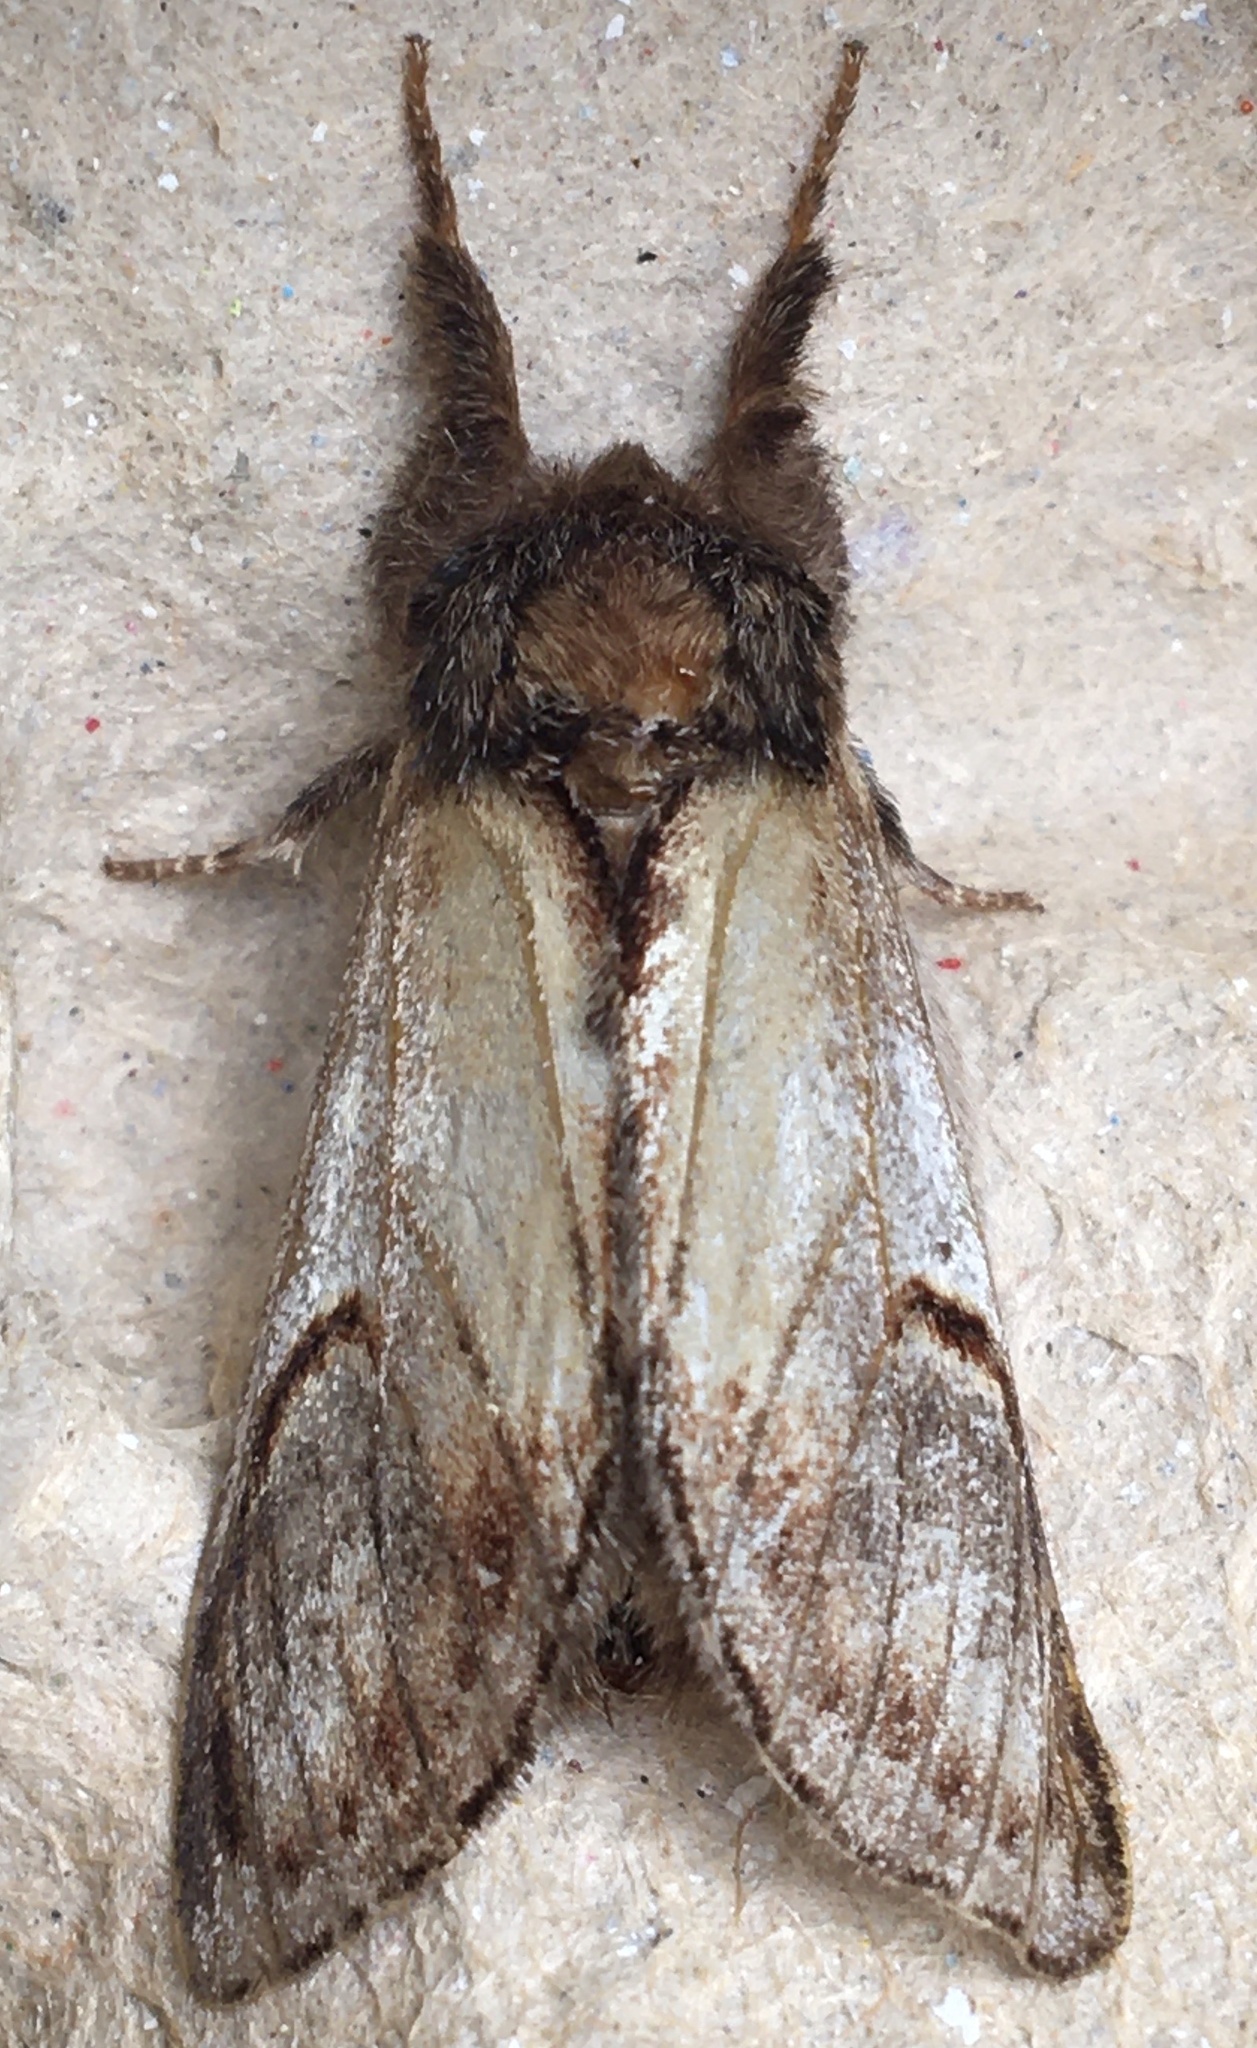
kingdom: Animalia
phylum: Arthropoda
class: Insecta
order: Lepidoptera
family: Notodontidae
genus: Notodonta
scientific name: Notodonta ziczac
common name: Pebble prominent
